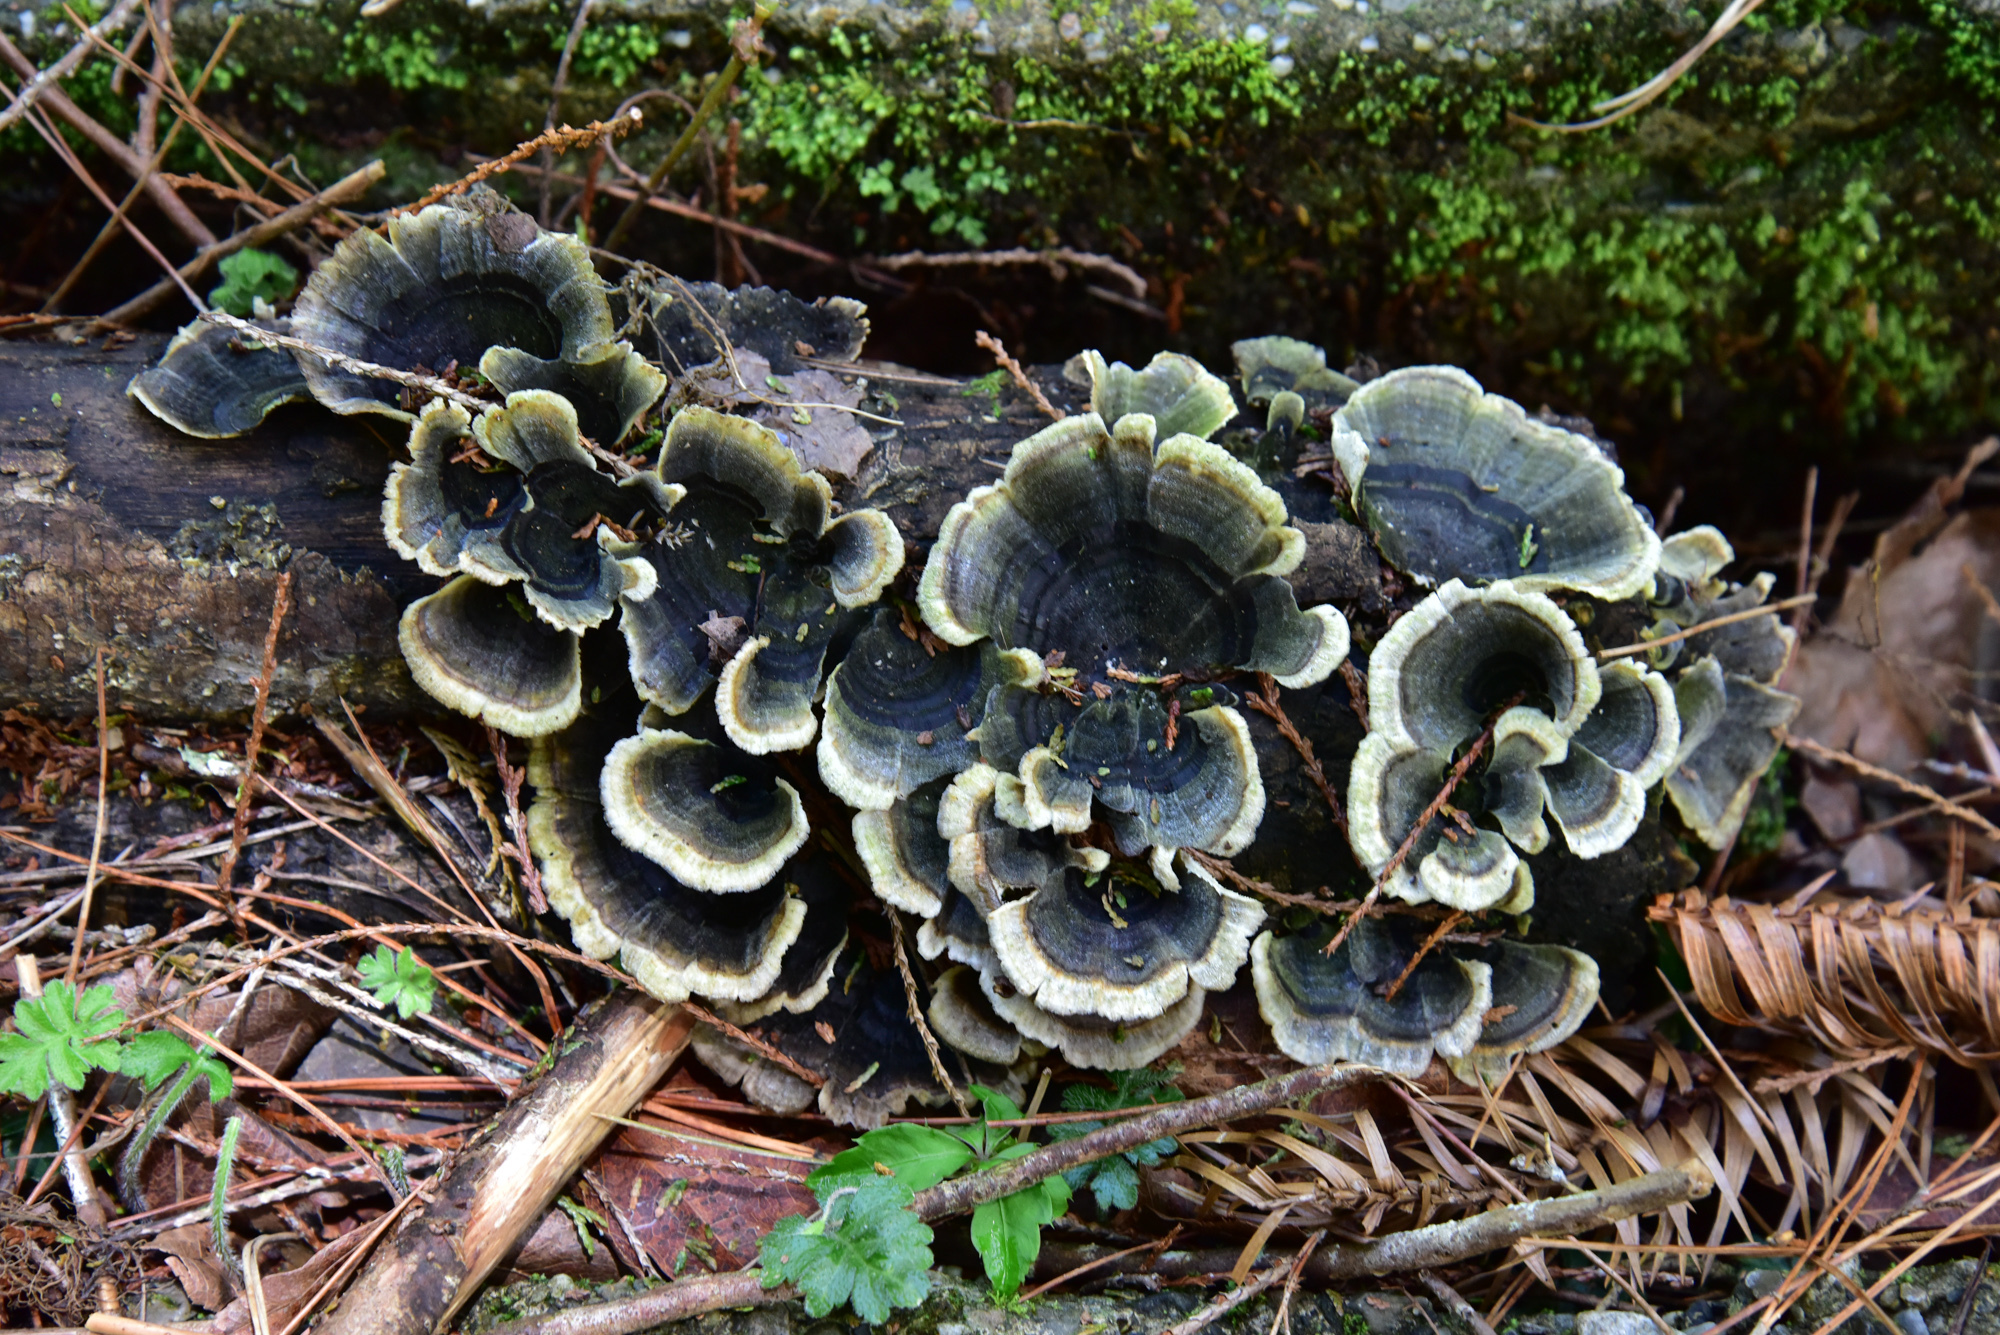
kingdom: Fungi
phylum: Basidiomycota
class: Agaricomycetes
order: Polyporales
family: Polyporaceae
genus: Trametes
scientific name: Trametes versicolor
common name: Turkeytail
